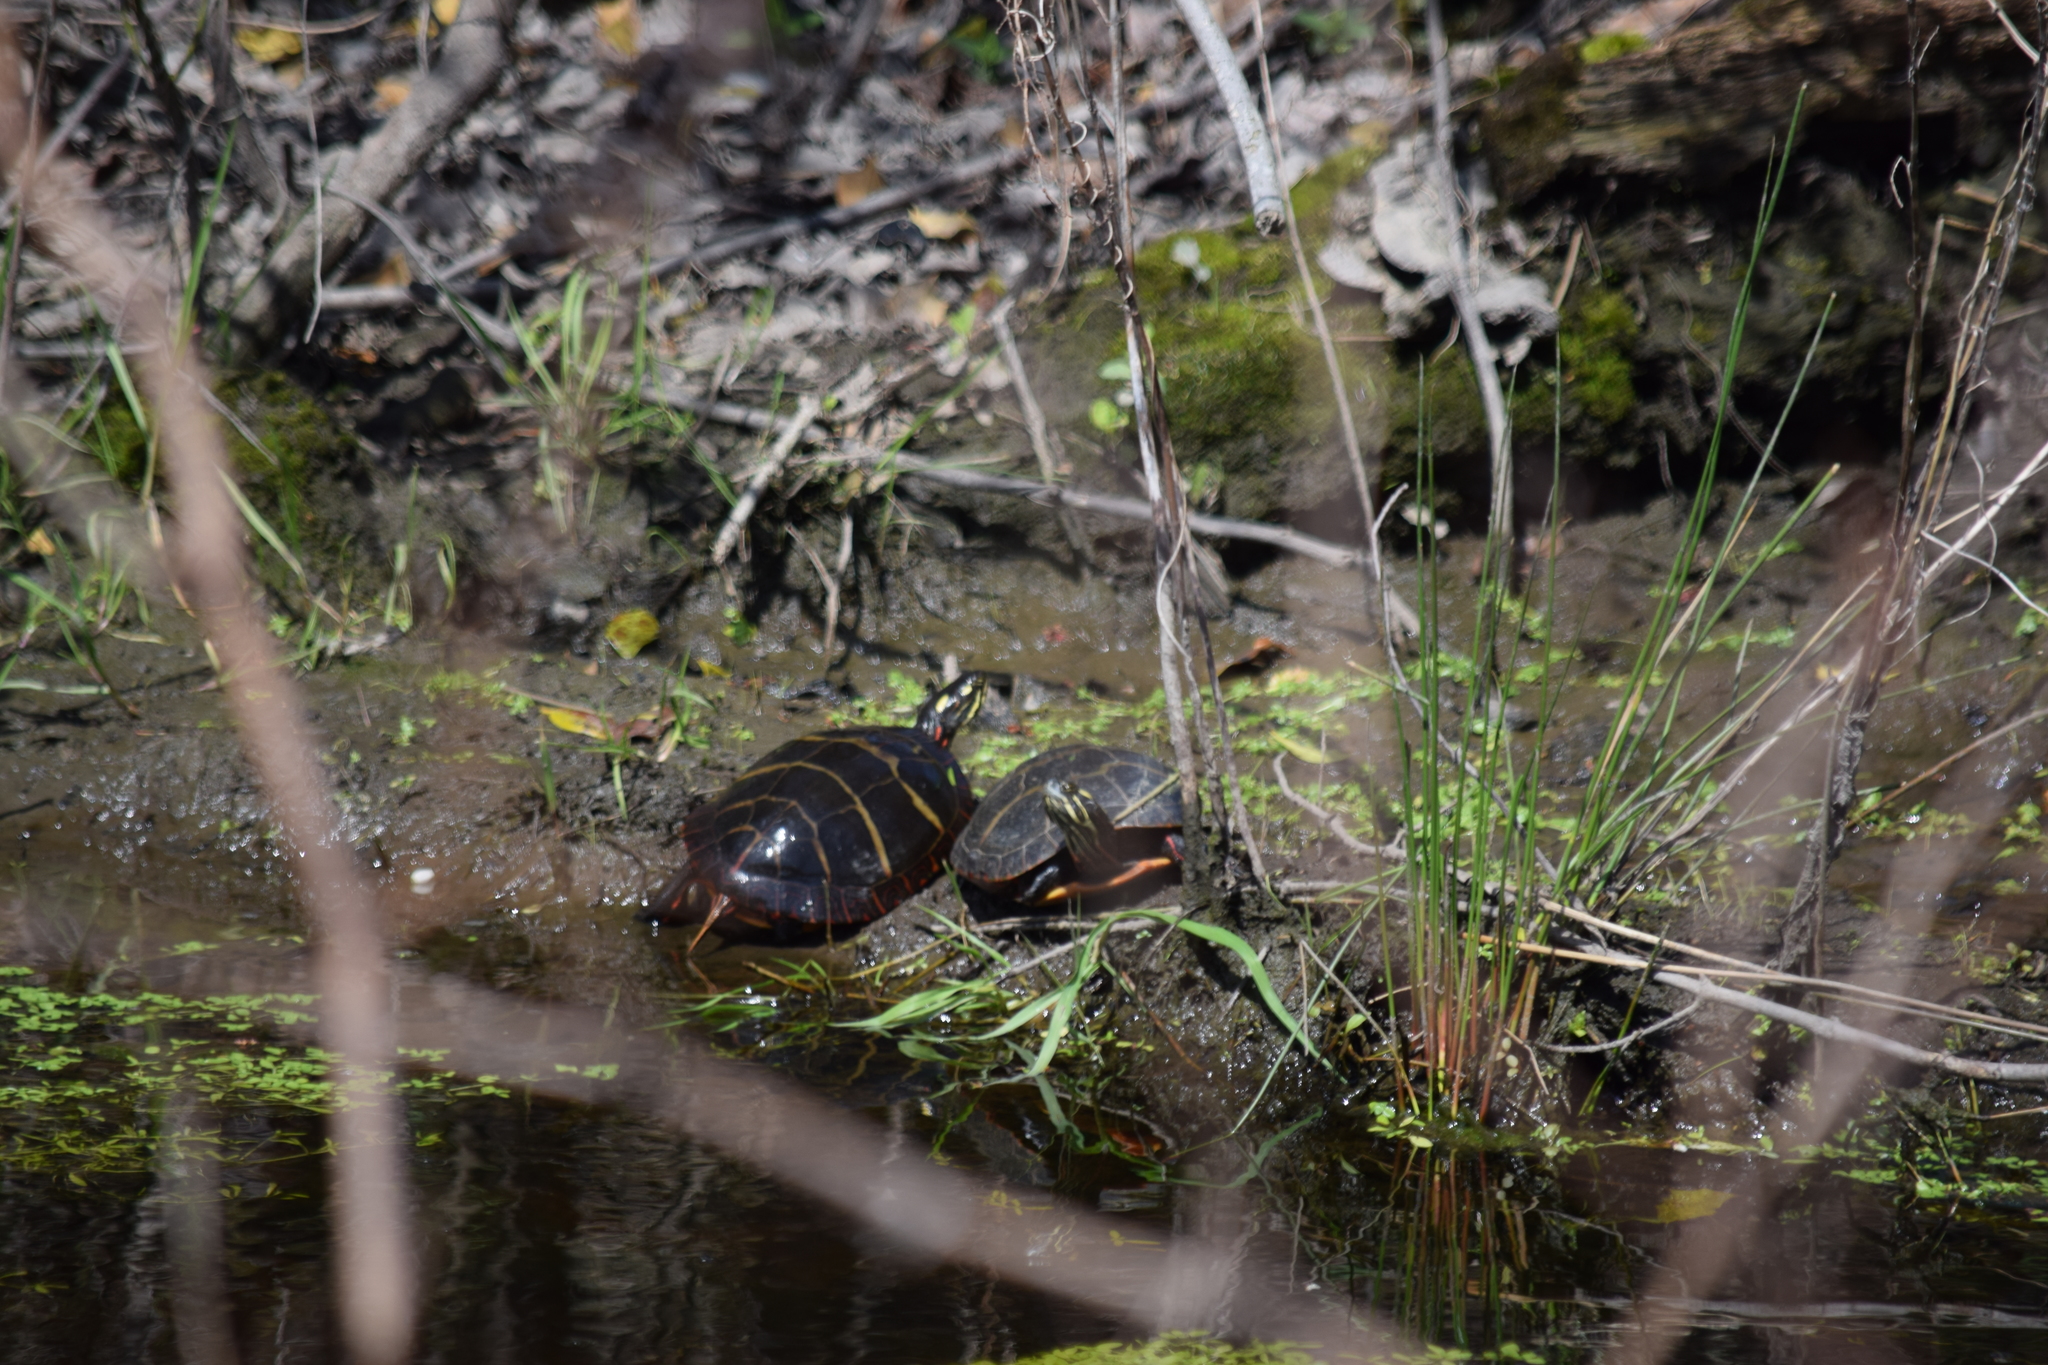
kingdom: Animalia
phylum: Chordata
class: Testudines
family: Emydidae
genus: Chrysemys
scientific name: Chrysemys picta
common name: Painted turtle
